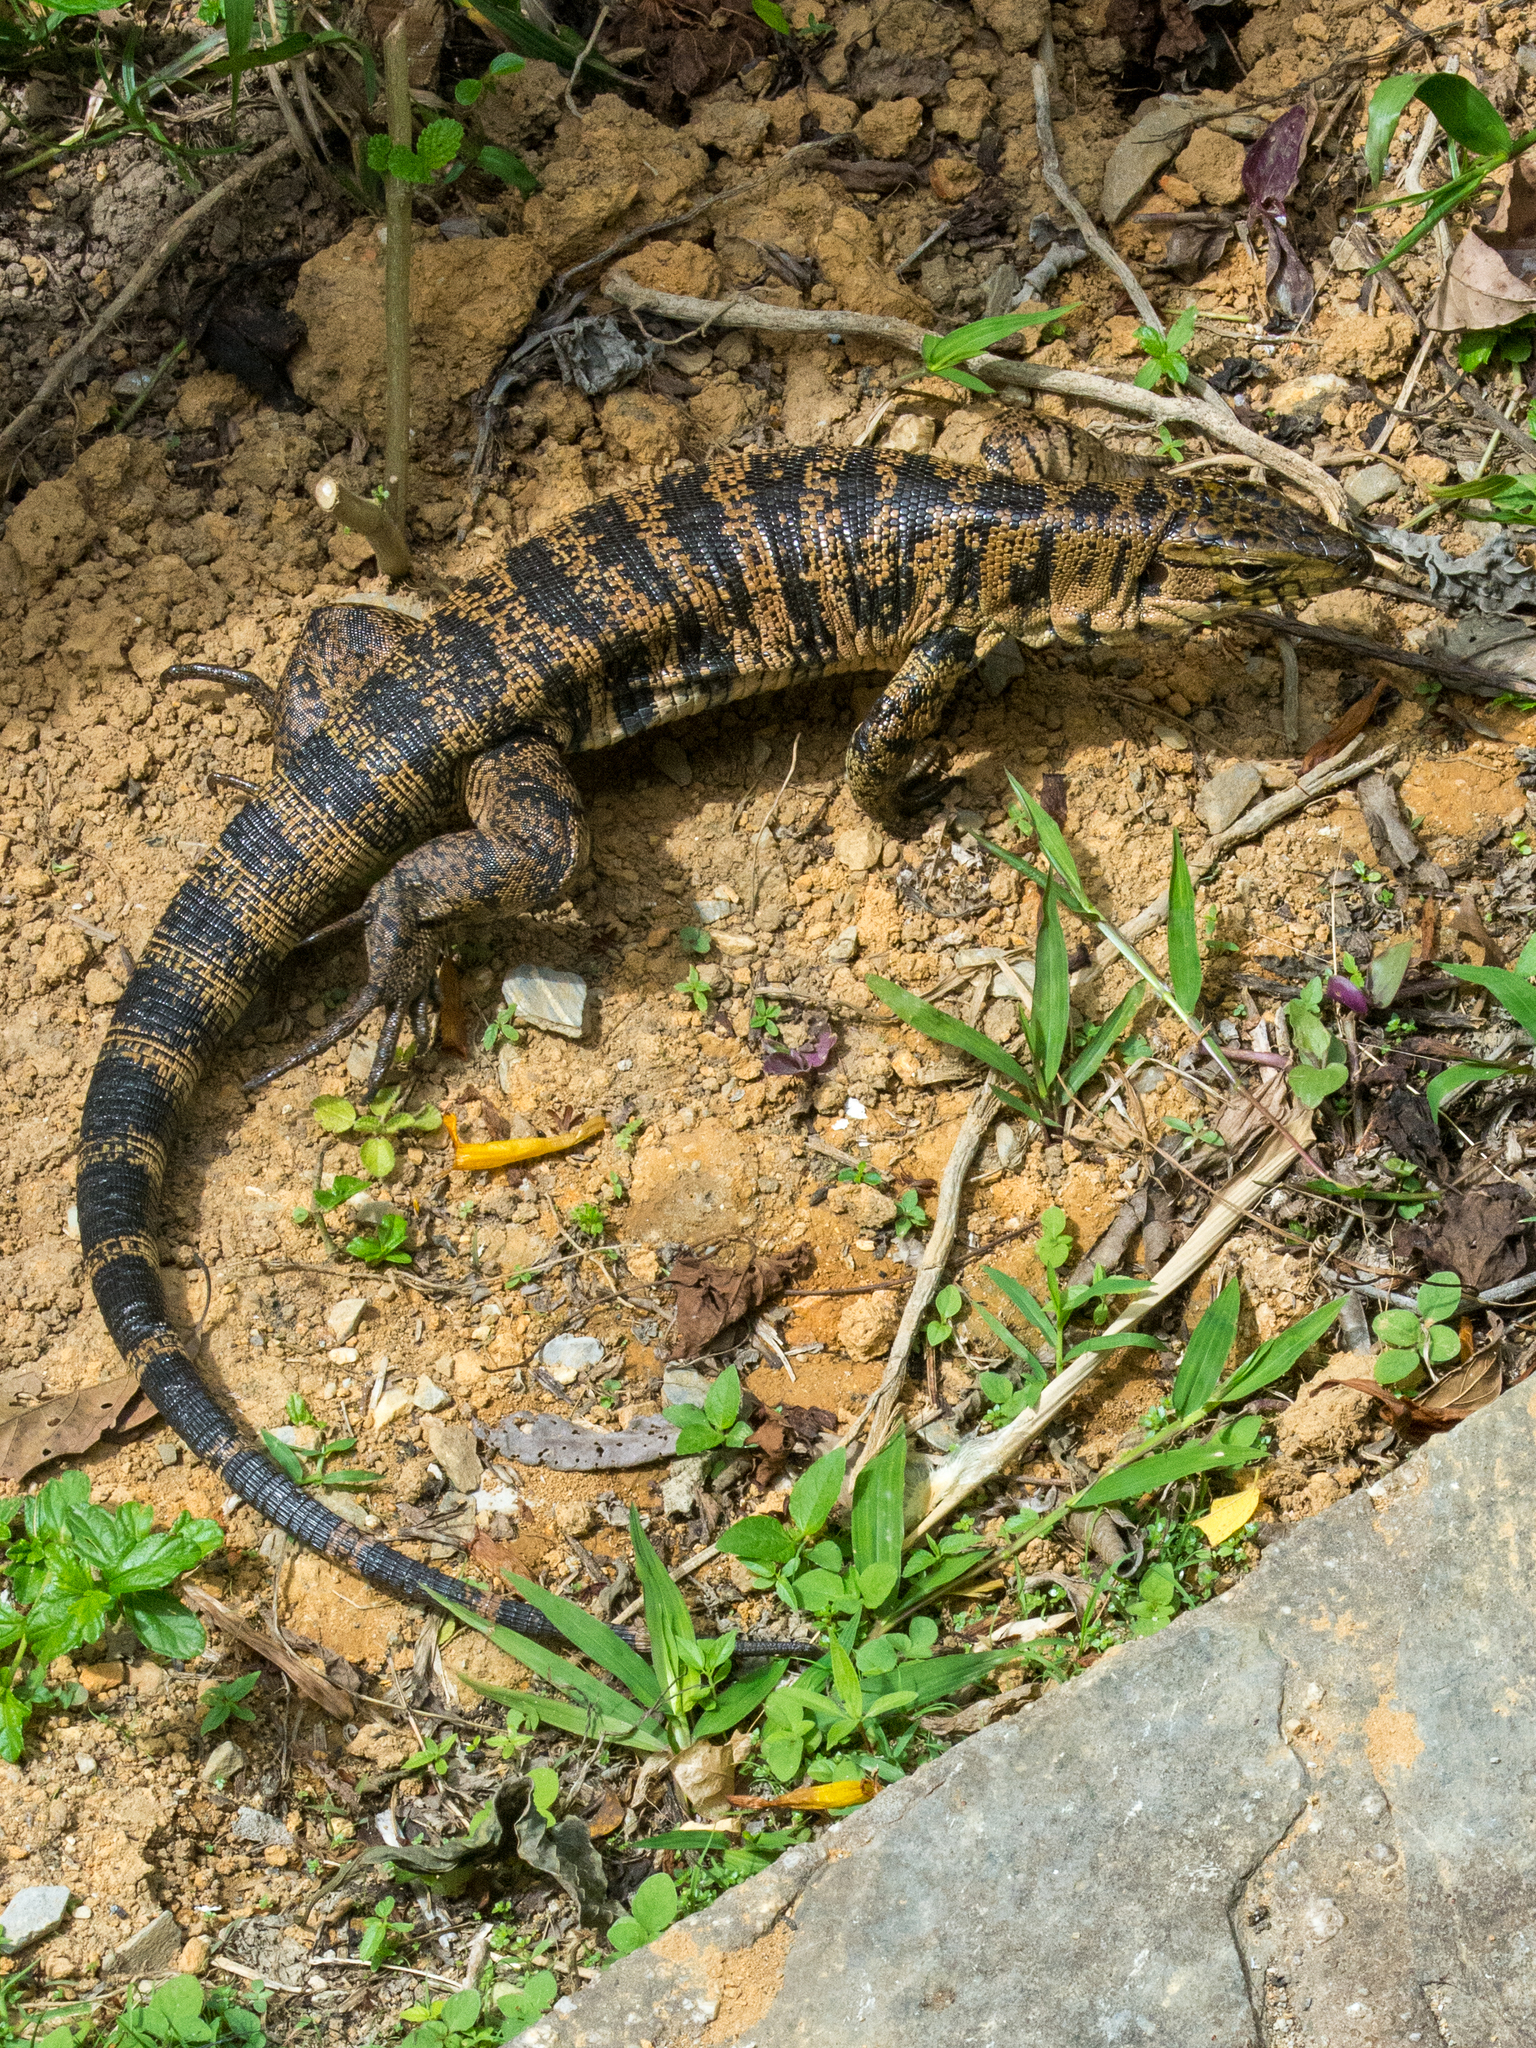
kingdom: Animalia
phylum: Chordata
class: Squamata
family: Teiidae
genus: Tupinambis
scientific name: Tupinambis cryptus
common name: Cryptic golden tegu
